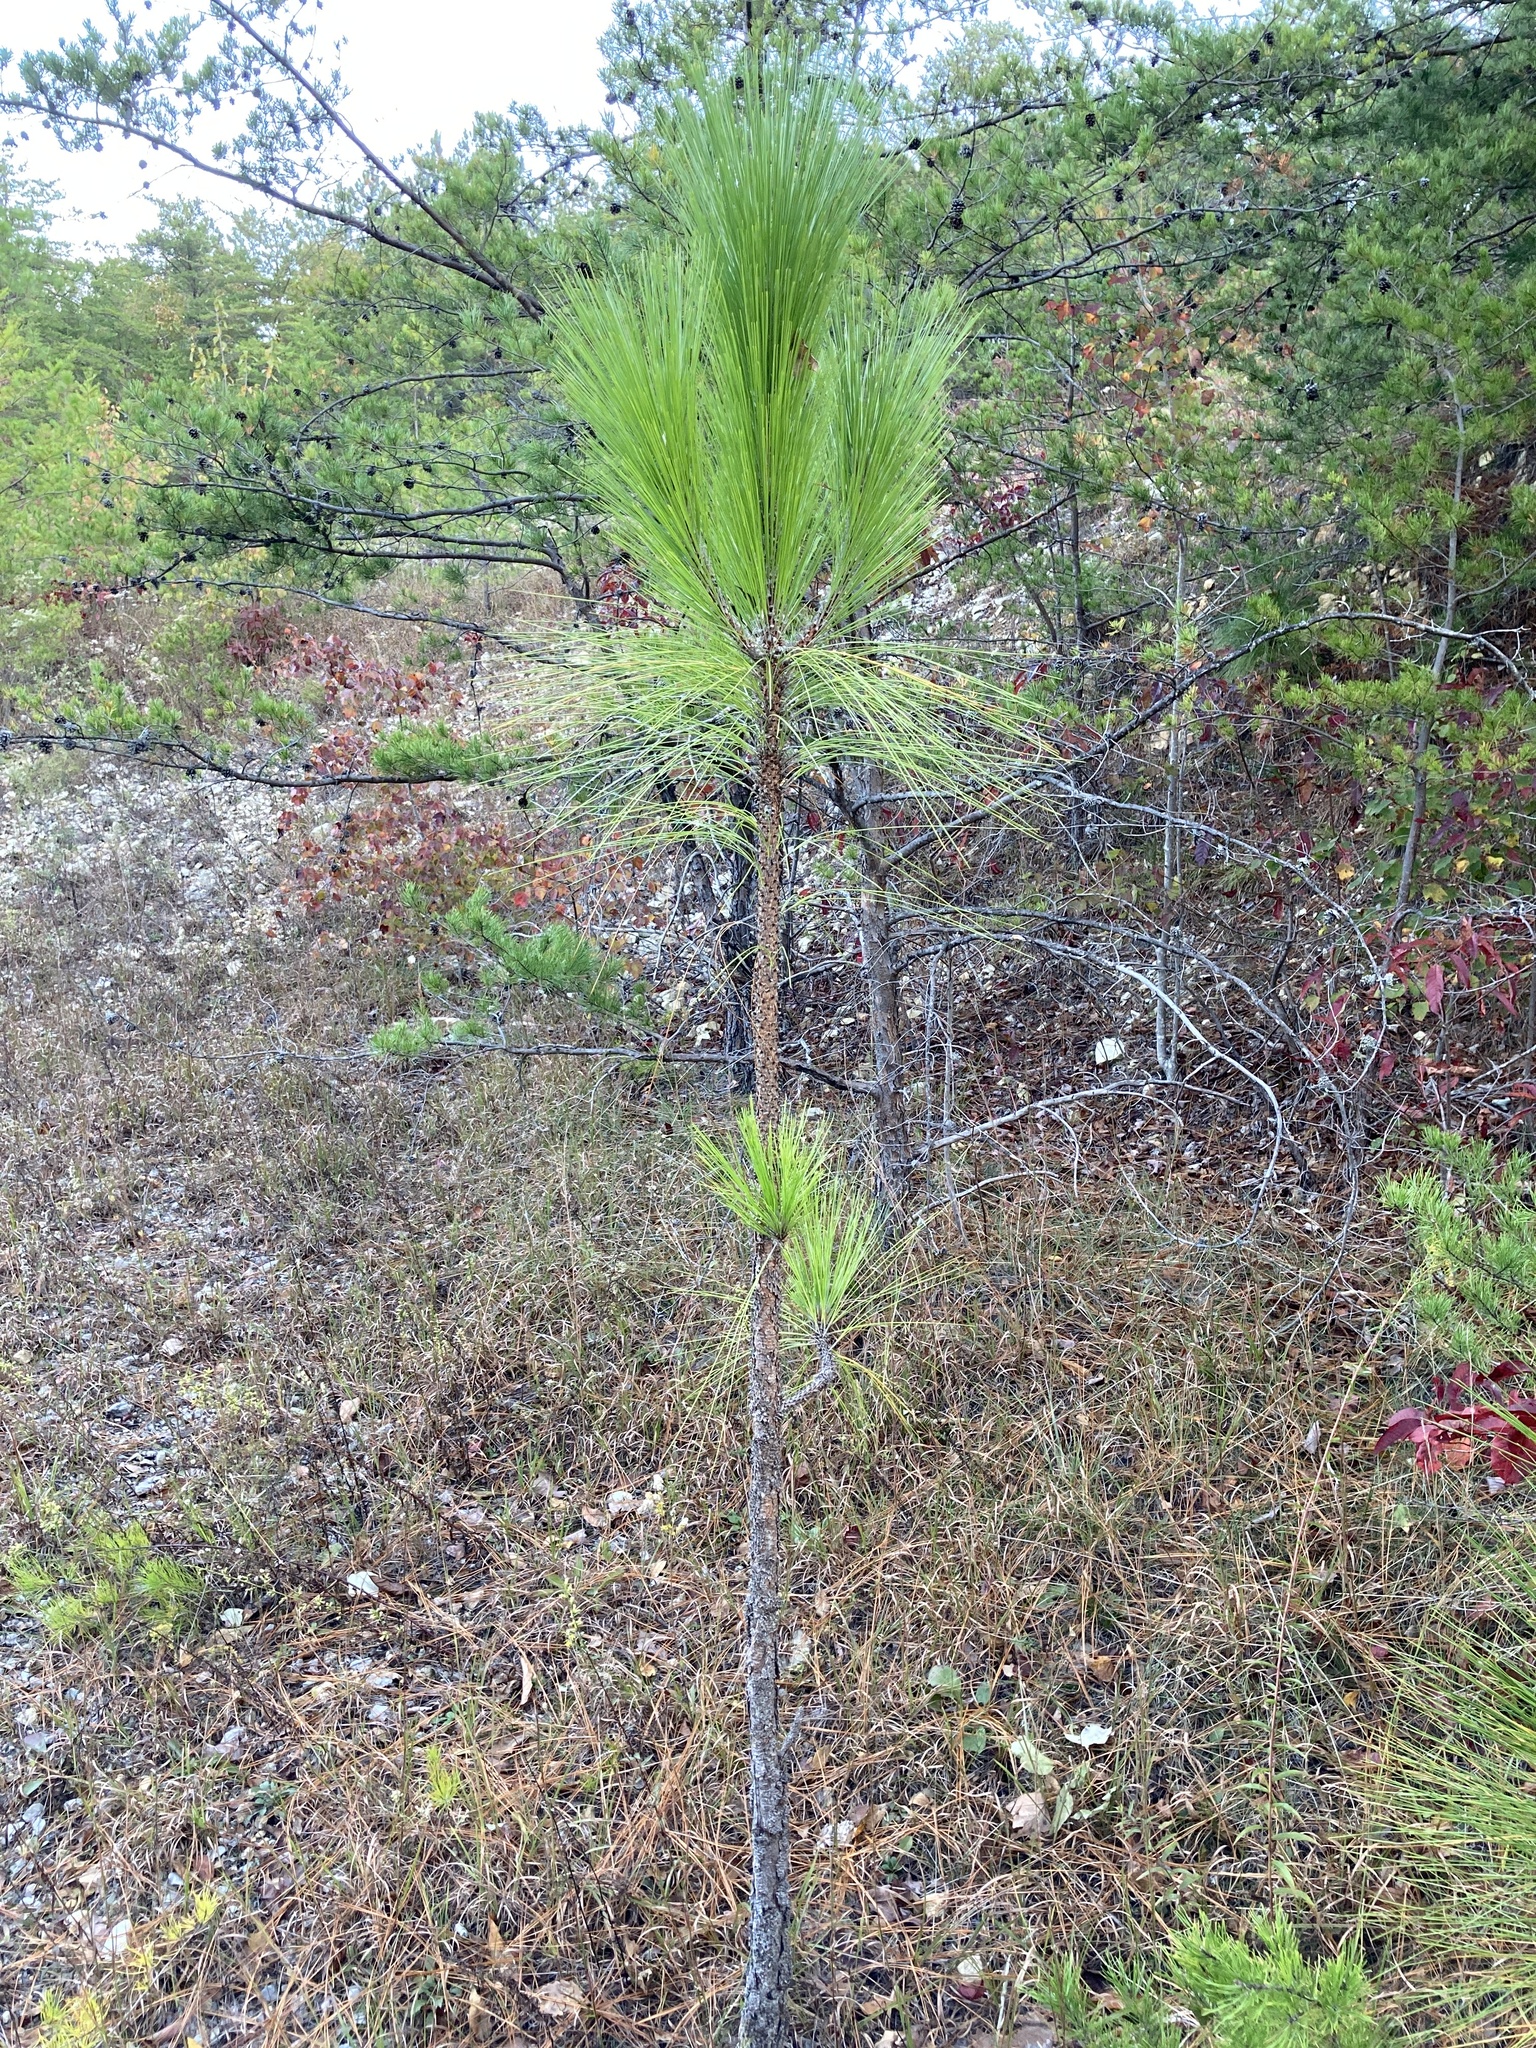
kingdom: Plantae
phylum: Tracheophyta
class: Pinopsida
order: Pinales
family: Pinaceae
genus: Pinus
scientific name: Pinus palustris
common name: Longleaf pine
